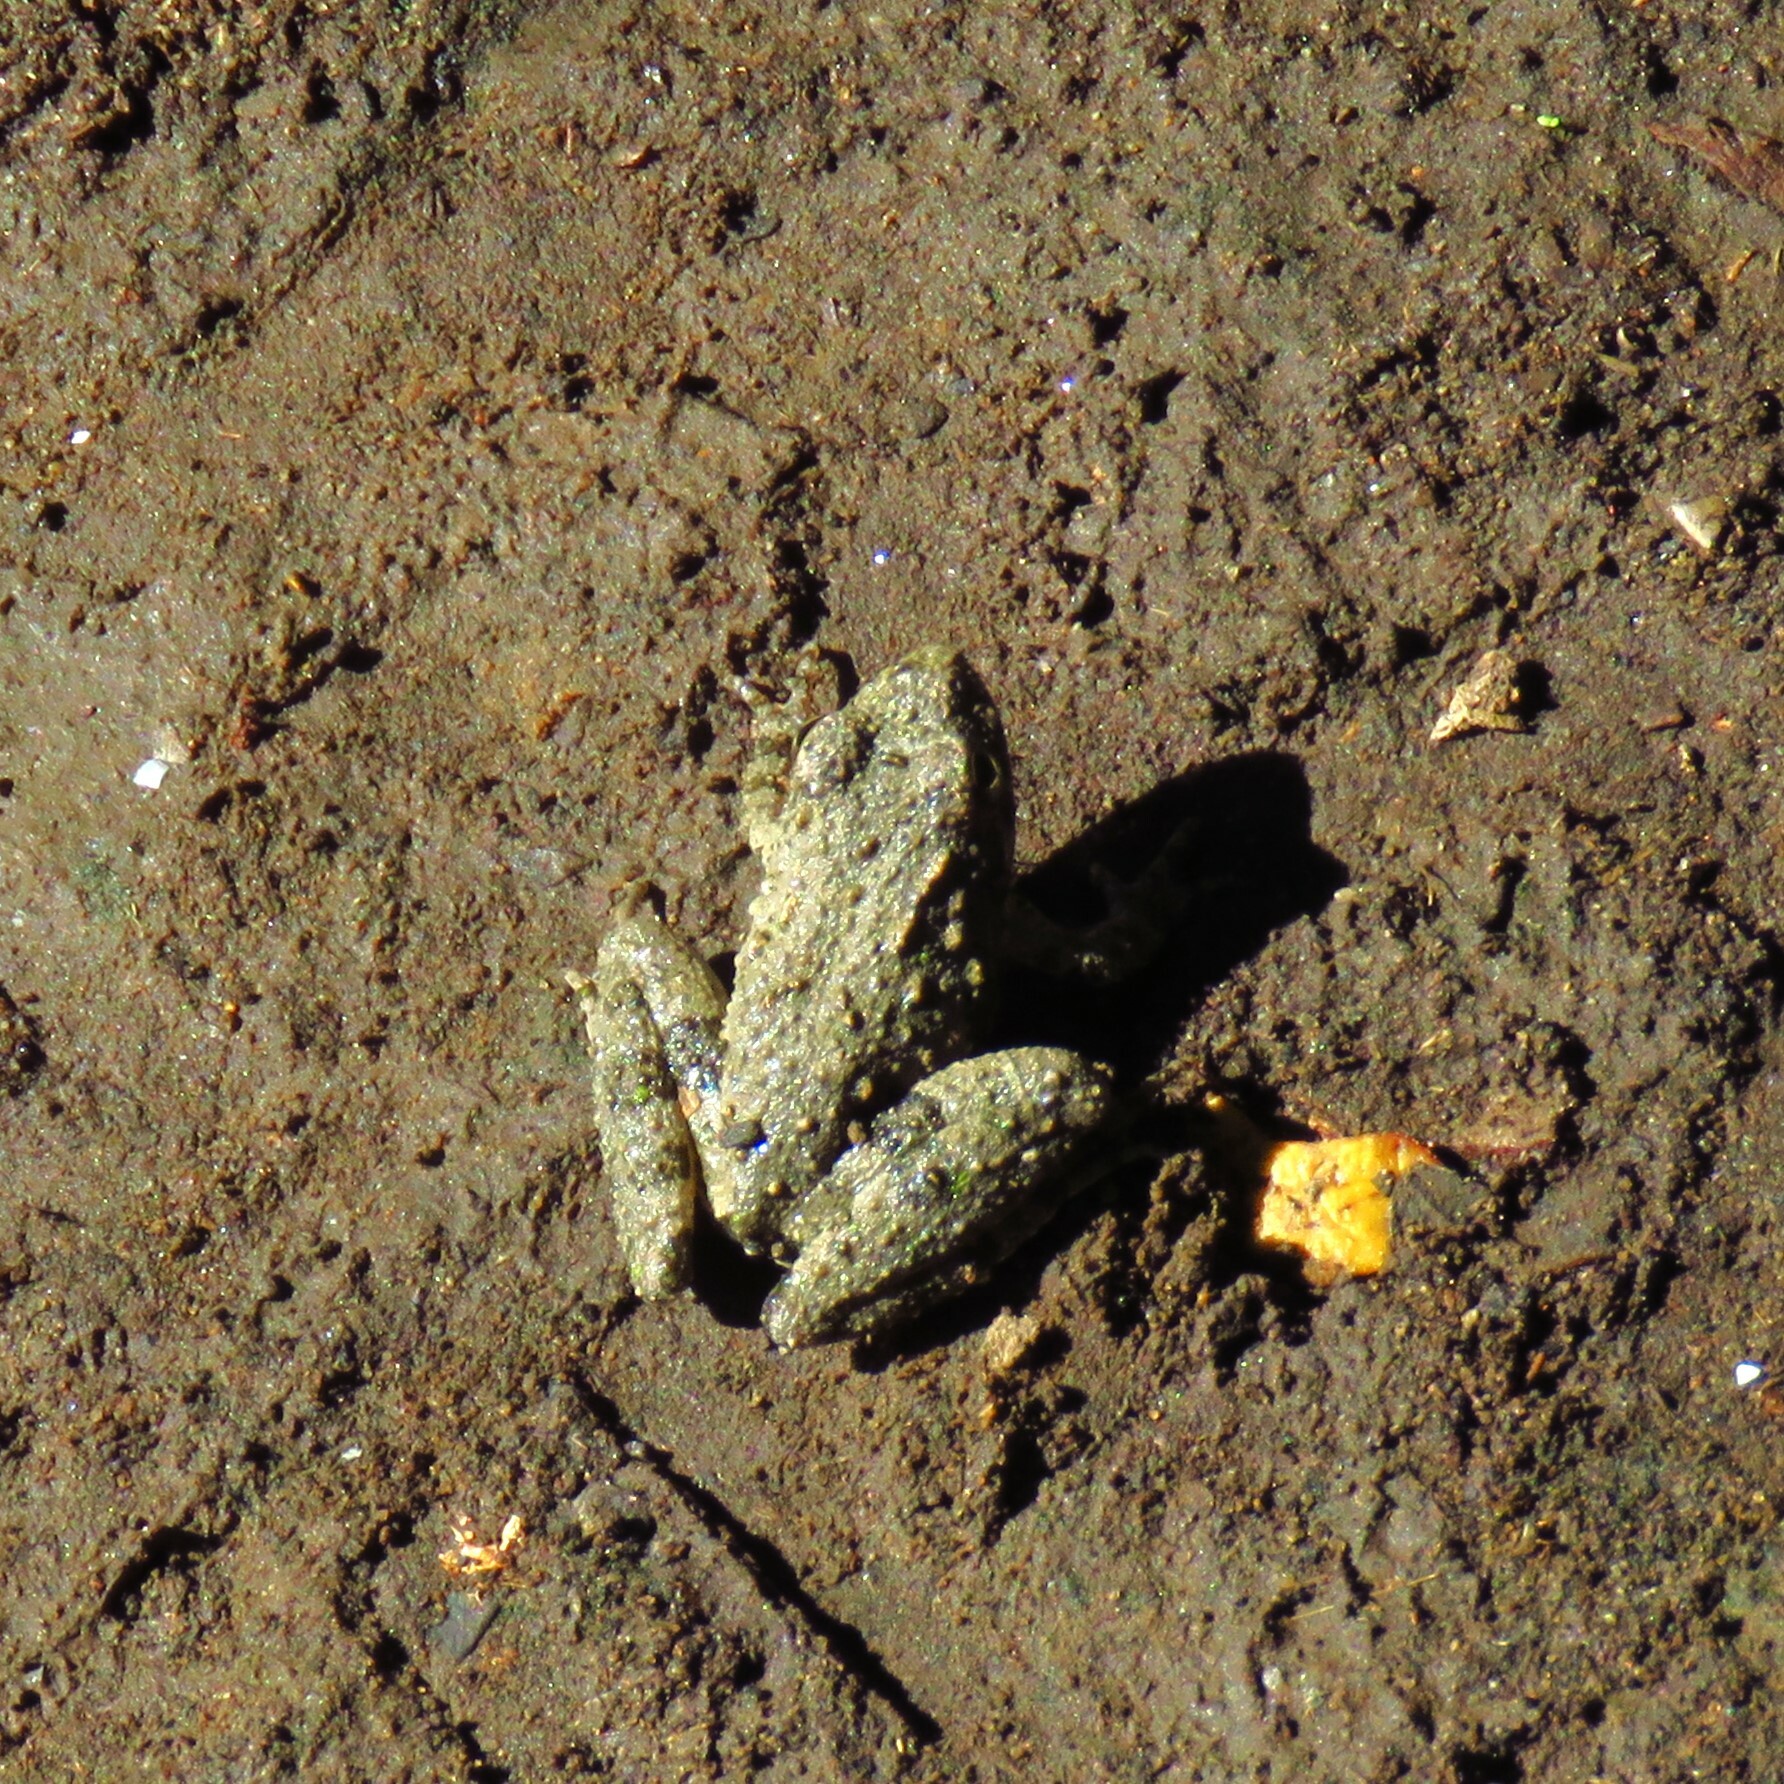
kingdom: Animalia
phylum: Chordata
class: Amphibia
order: Anura
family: Hylidae
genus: Acris
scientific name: Acris blanchardi
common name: Blanchard's cricket frog
